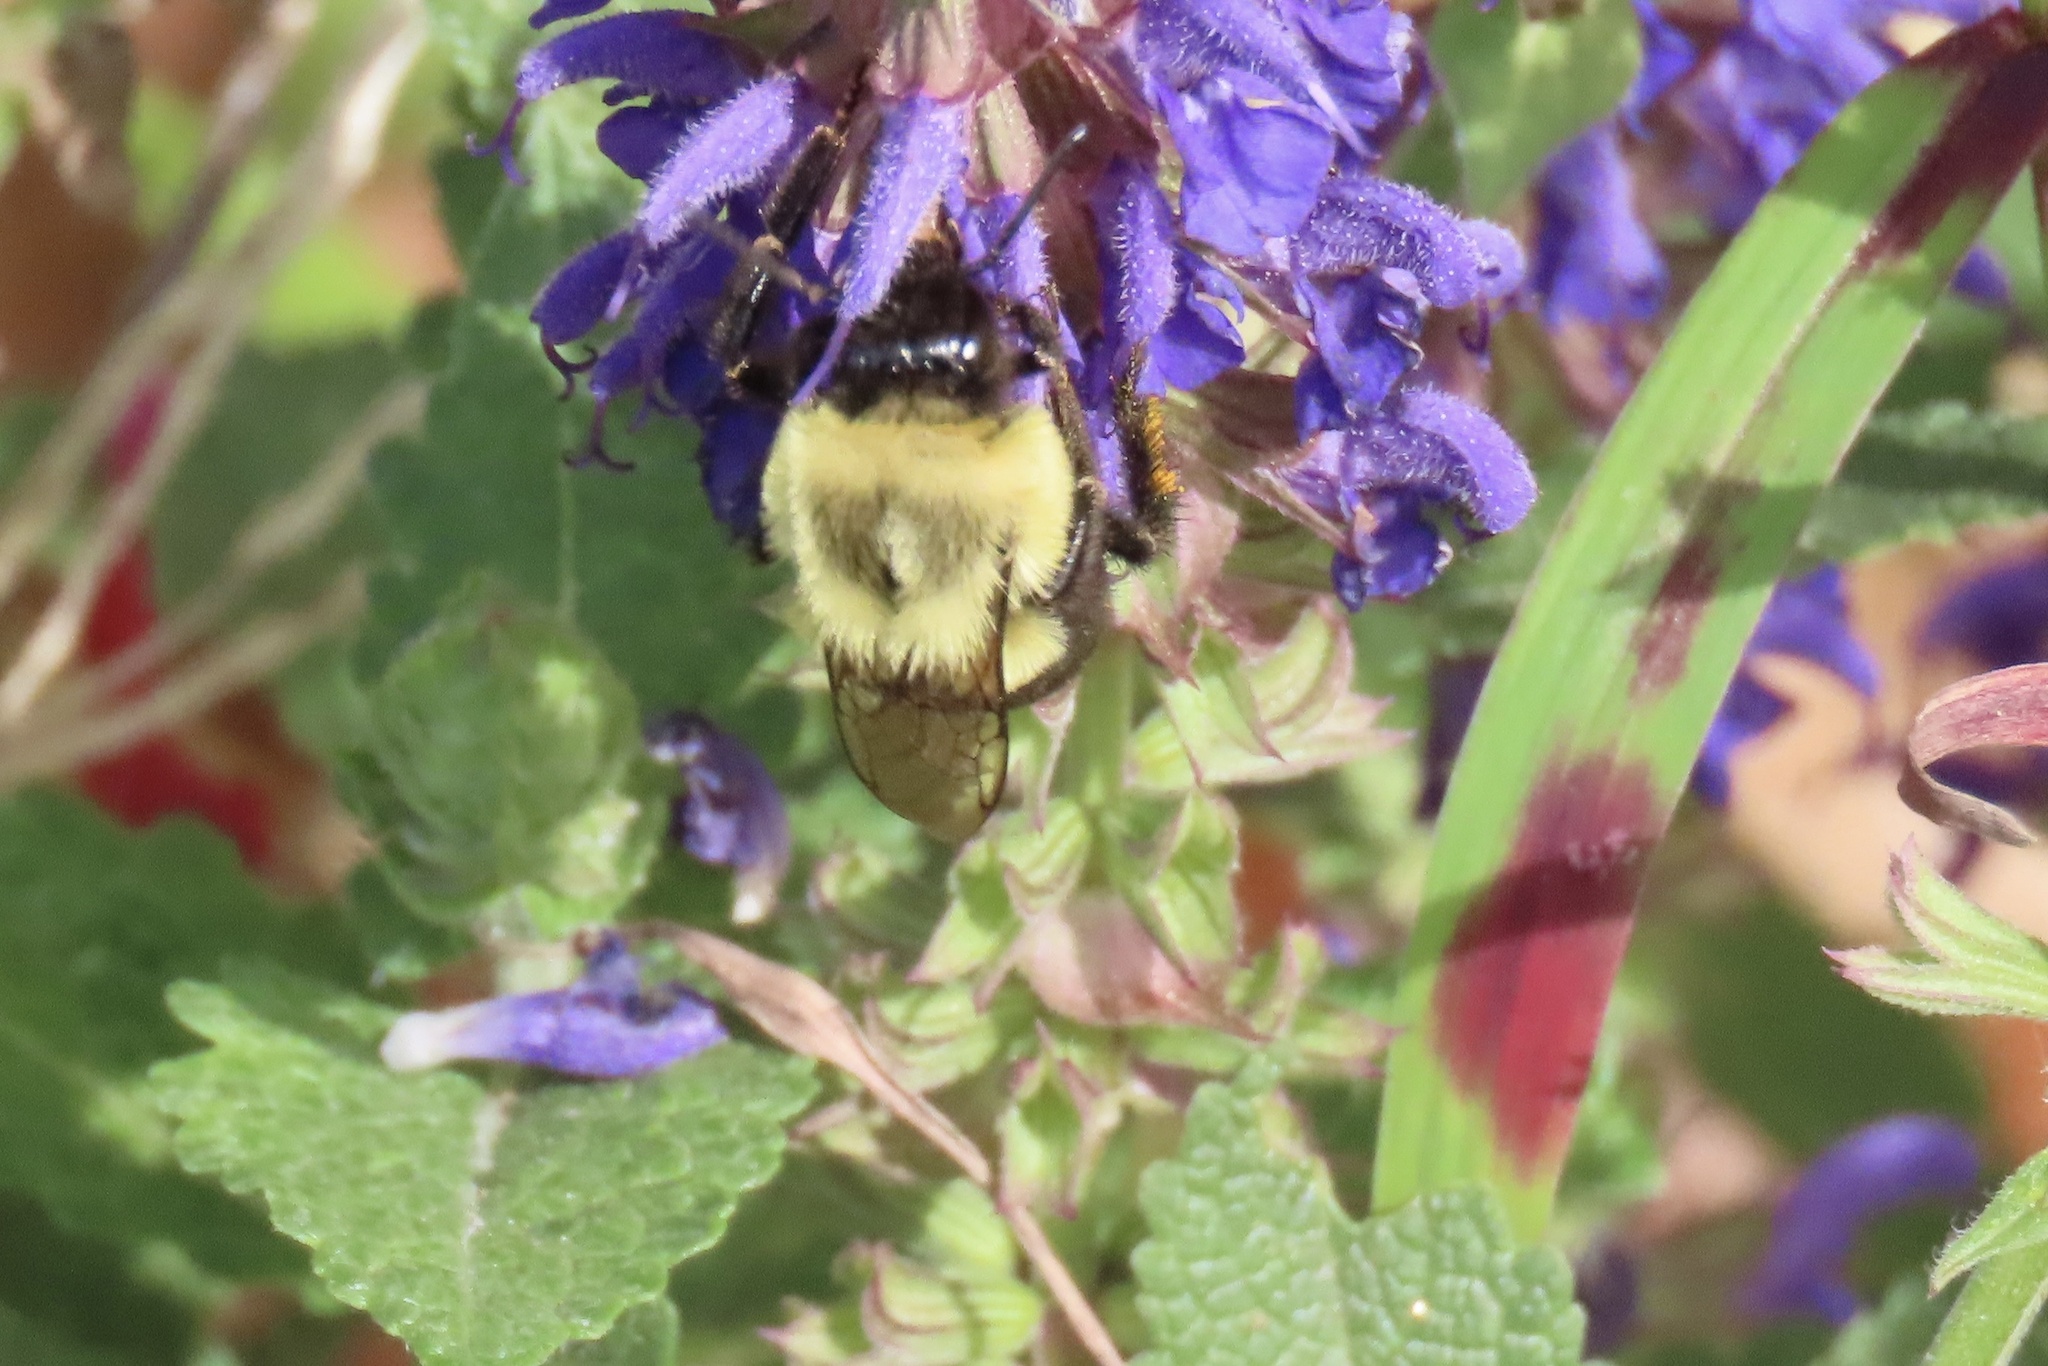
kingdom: Animalia
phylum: Arthropoda
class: Insecta
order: Hymenoptera
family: Apidae
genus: Bombus
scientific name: Bombus impatiens
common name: Common eastern bumble bee
